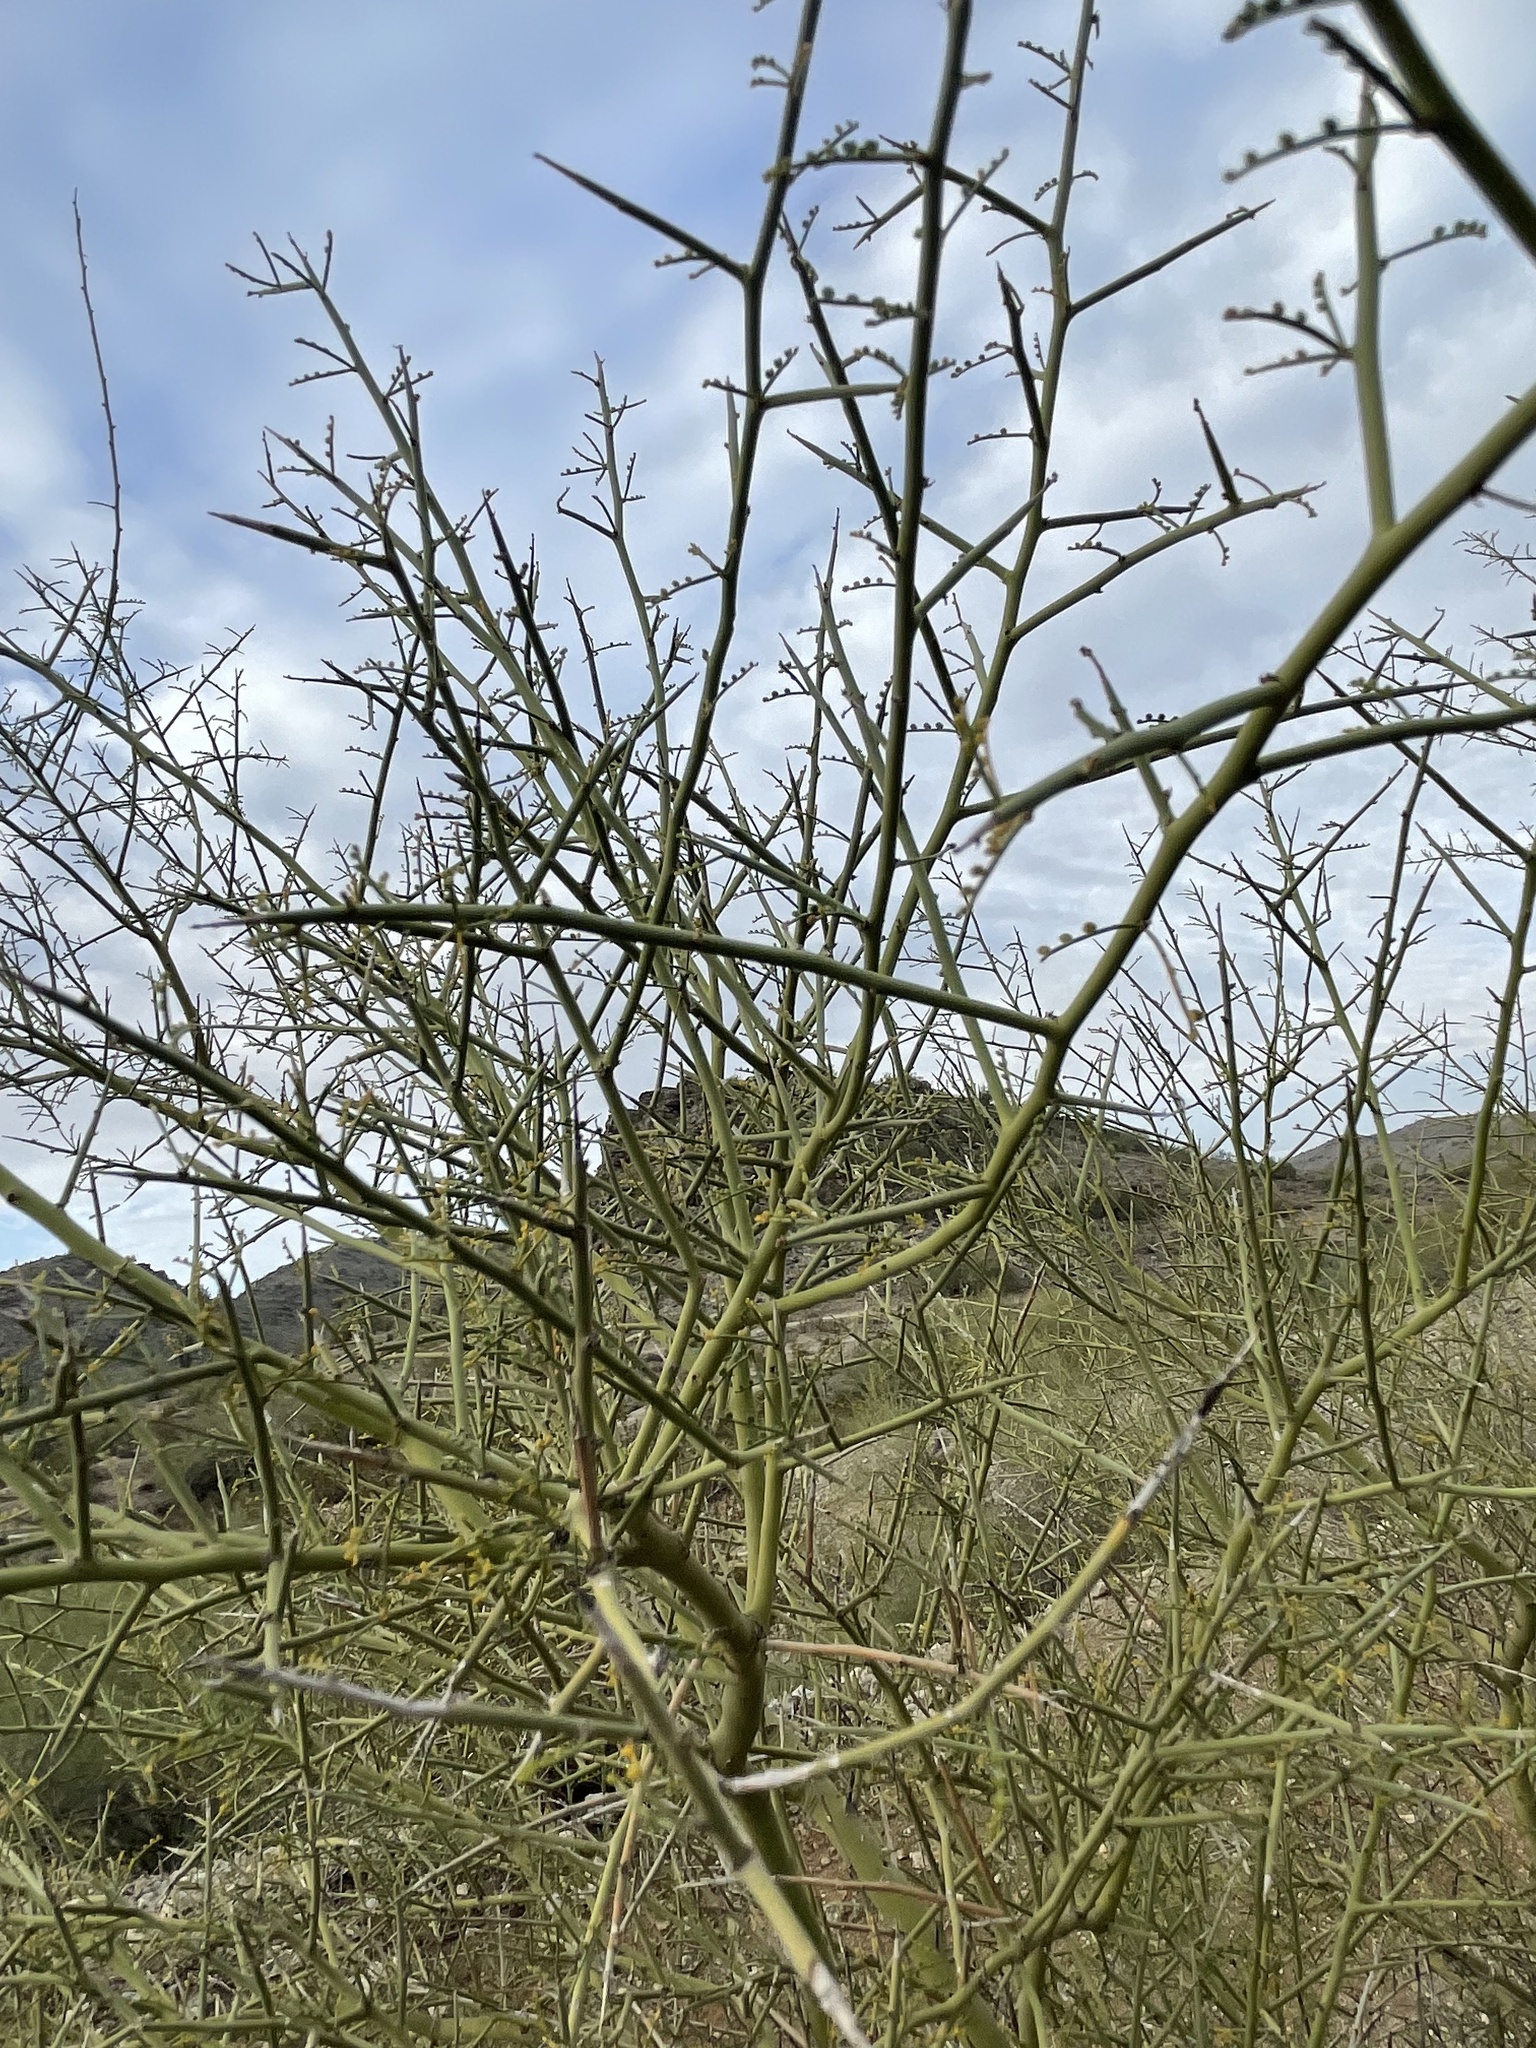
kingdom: Plantae
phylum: Tracheophyta
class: Magnoliopsida
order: Fabales
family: Fabaceae
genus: Parkinsonia
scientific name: Parkinsonia microphylla
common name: Yellow paloverde
